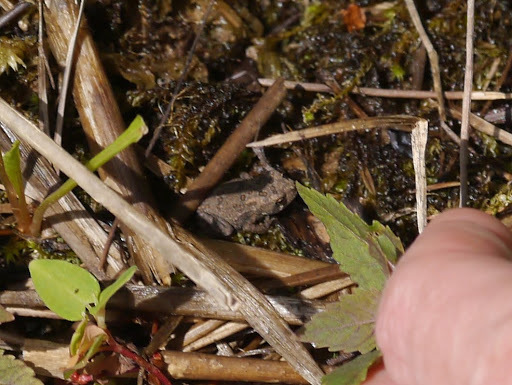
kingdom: Animalia
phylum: Chordata
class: Amphibia
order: Anura
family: Bufonidae
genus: Anaxyrus
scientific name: Anaxyrus
